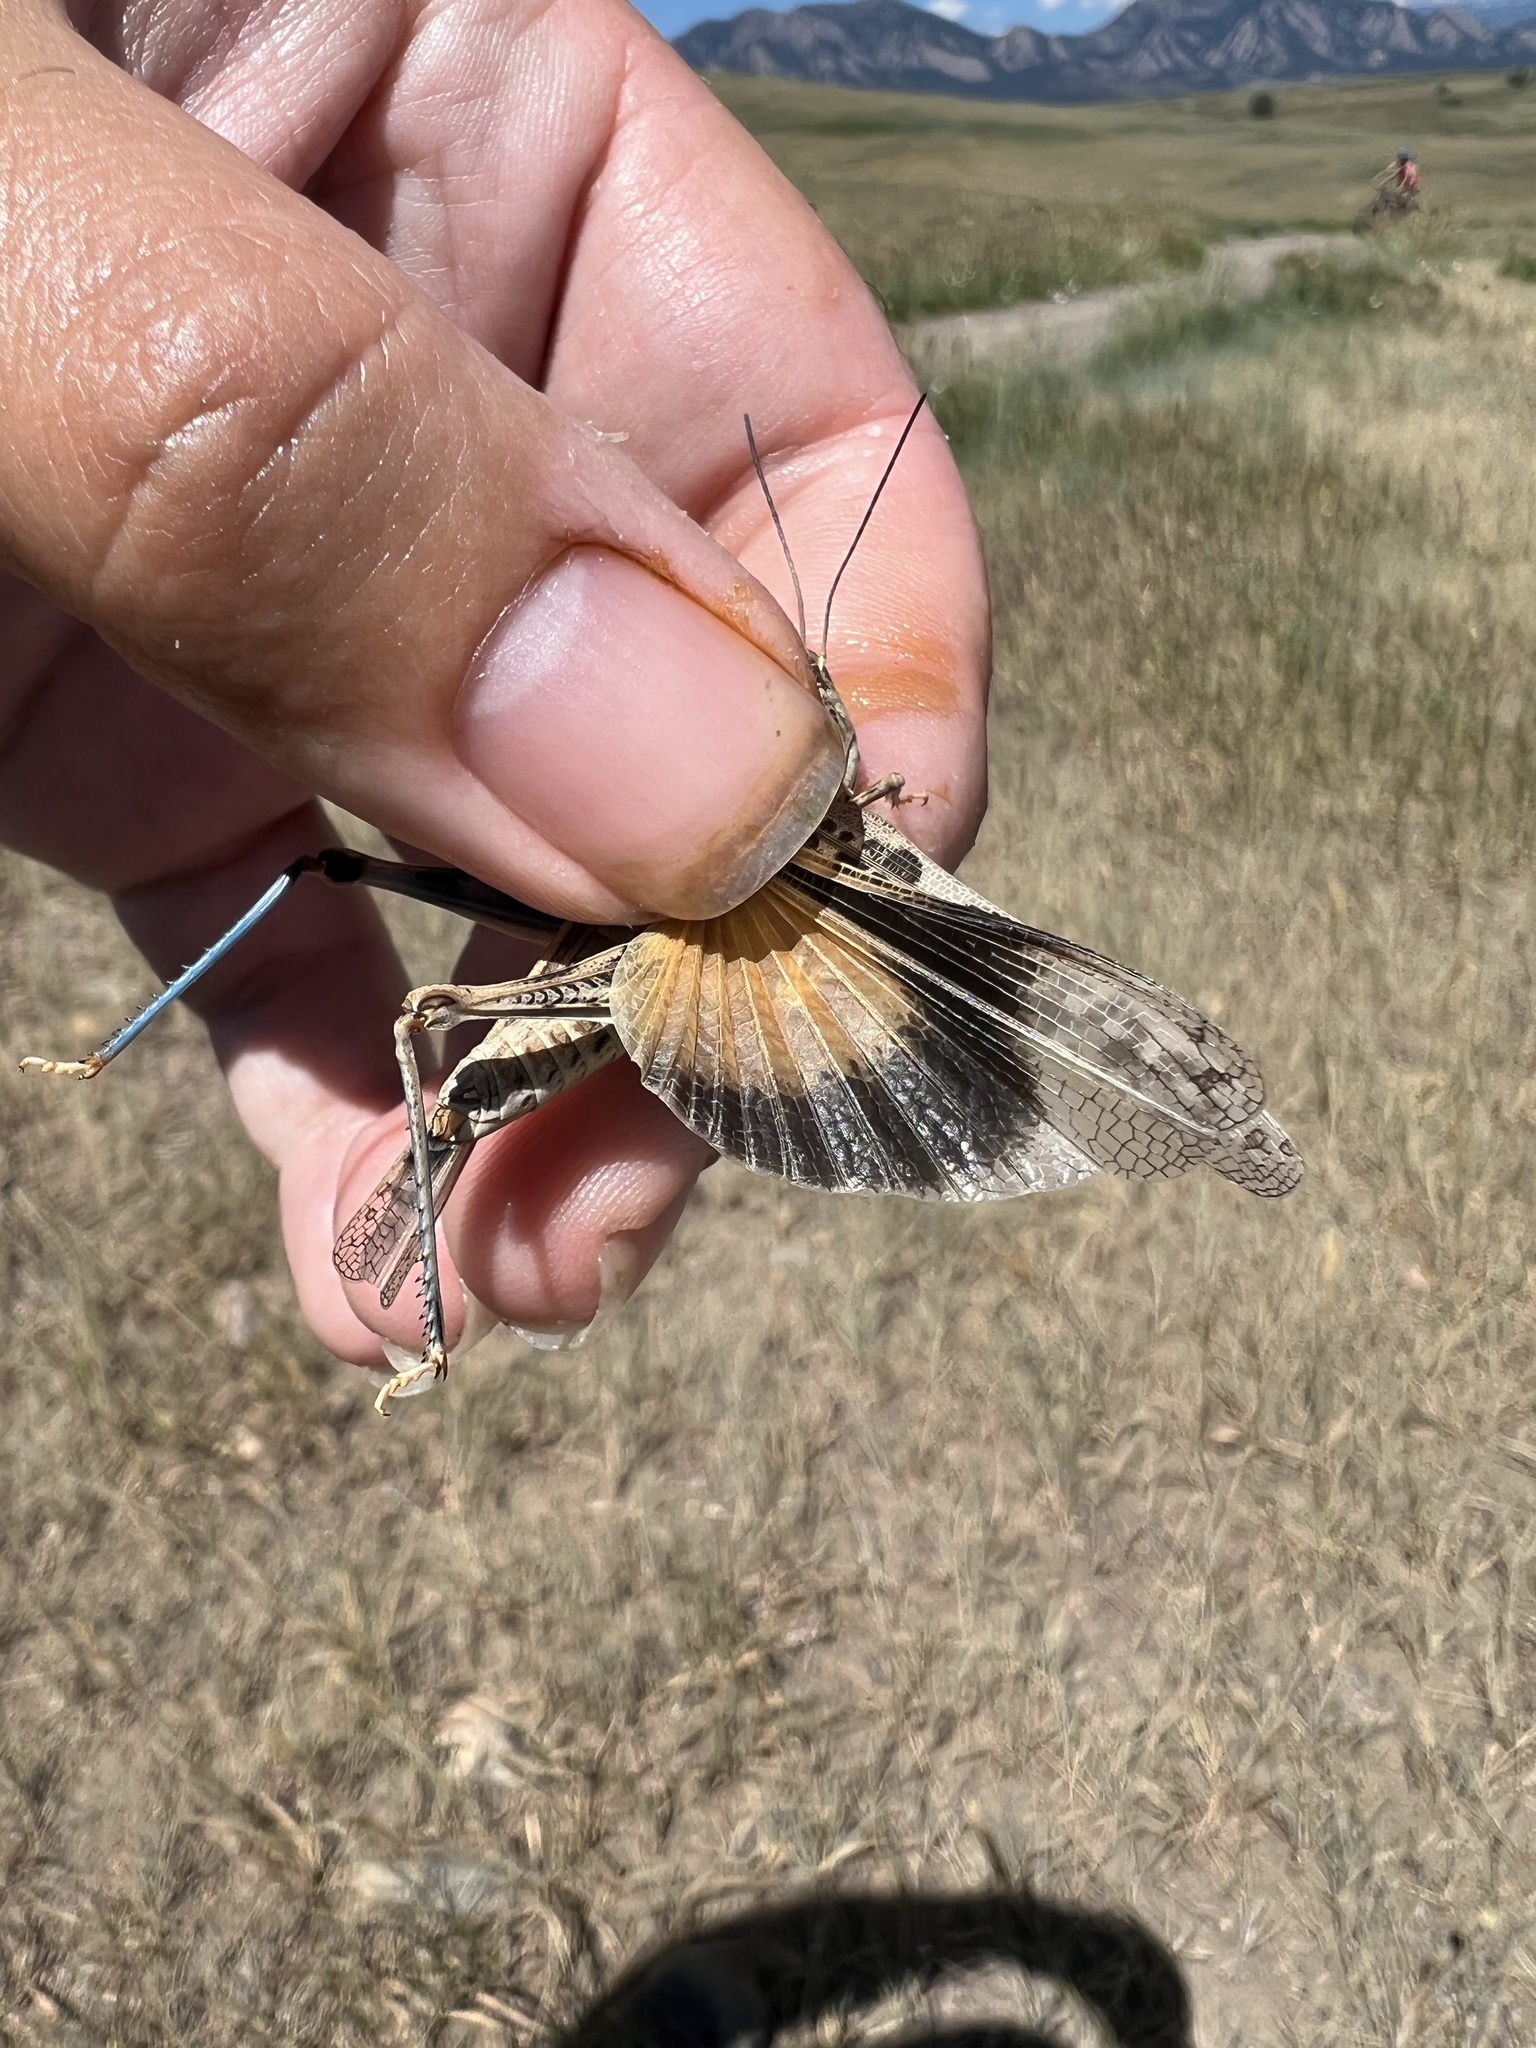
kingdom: Animalia
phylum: Arthropoda
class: Insecta
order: Orthoptera
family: Acrididae
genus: Metator
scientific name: Metator pardalinus
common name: Blue-legged grasshopper
